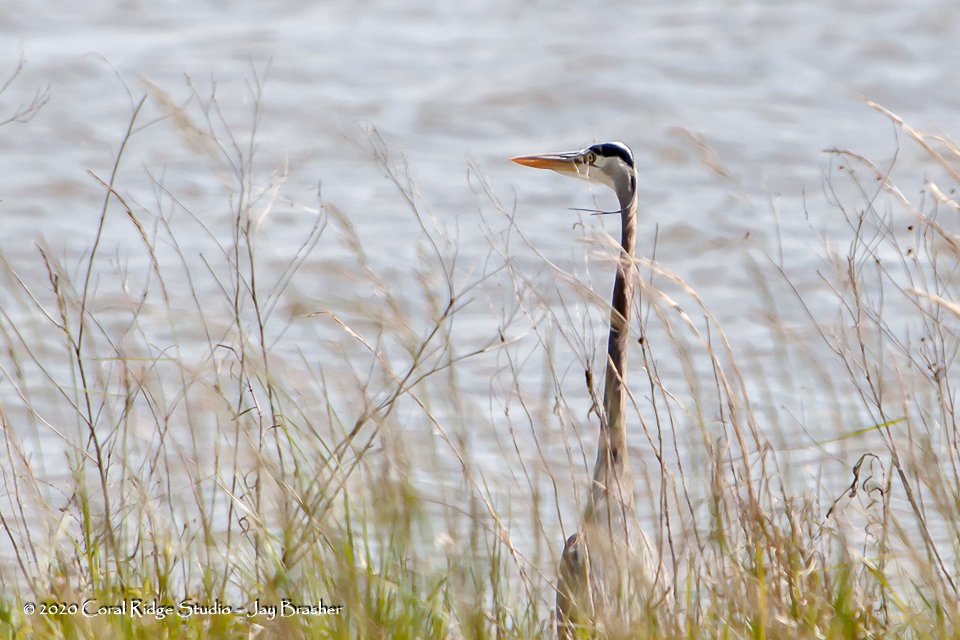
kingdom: Animalia
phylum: Chordata
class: Aves
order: Pelecaniformes
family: Ardeidae
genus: Ardea
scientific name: Ardea herodias
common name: Great blue heron
